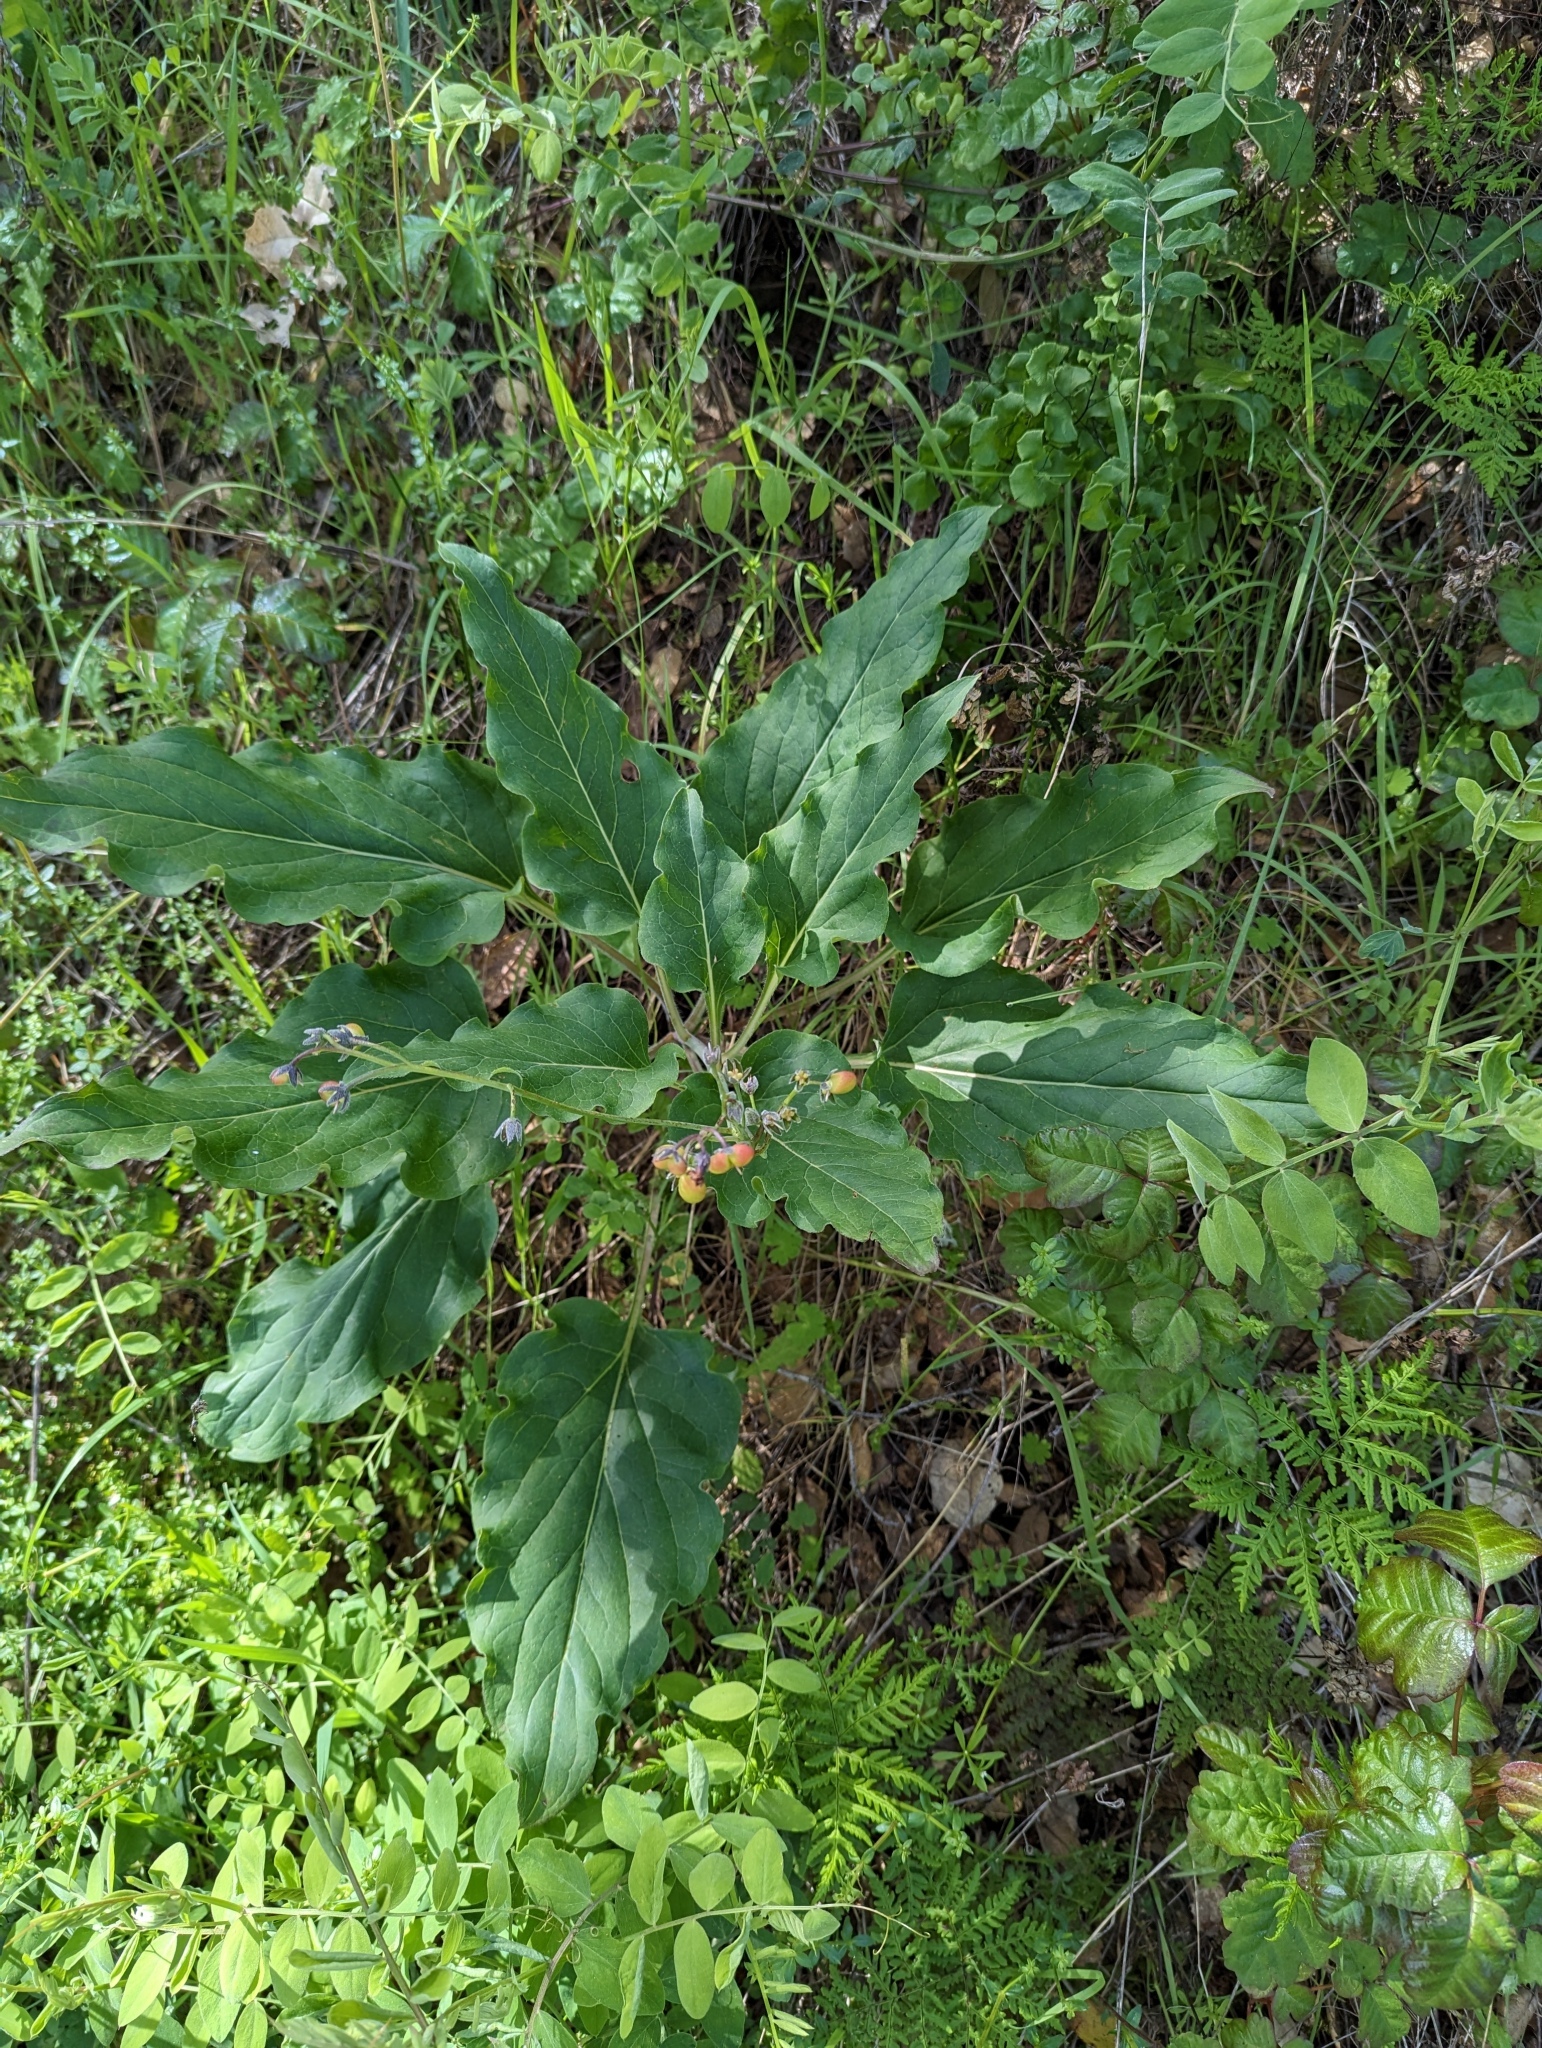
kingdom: Plantae
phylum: Tracheophyta
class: Magnoliopsida
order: Boraginales
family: Boraginaceae
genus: Adelinia
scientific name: Adelinia grande
